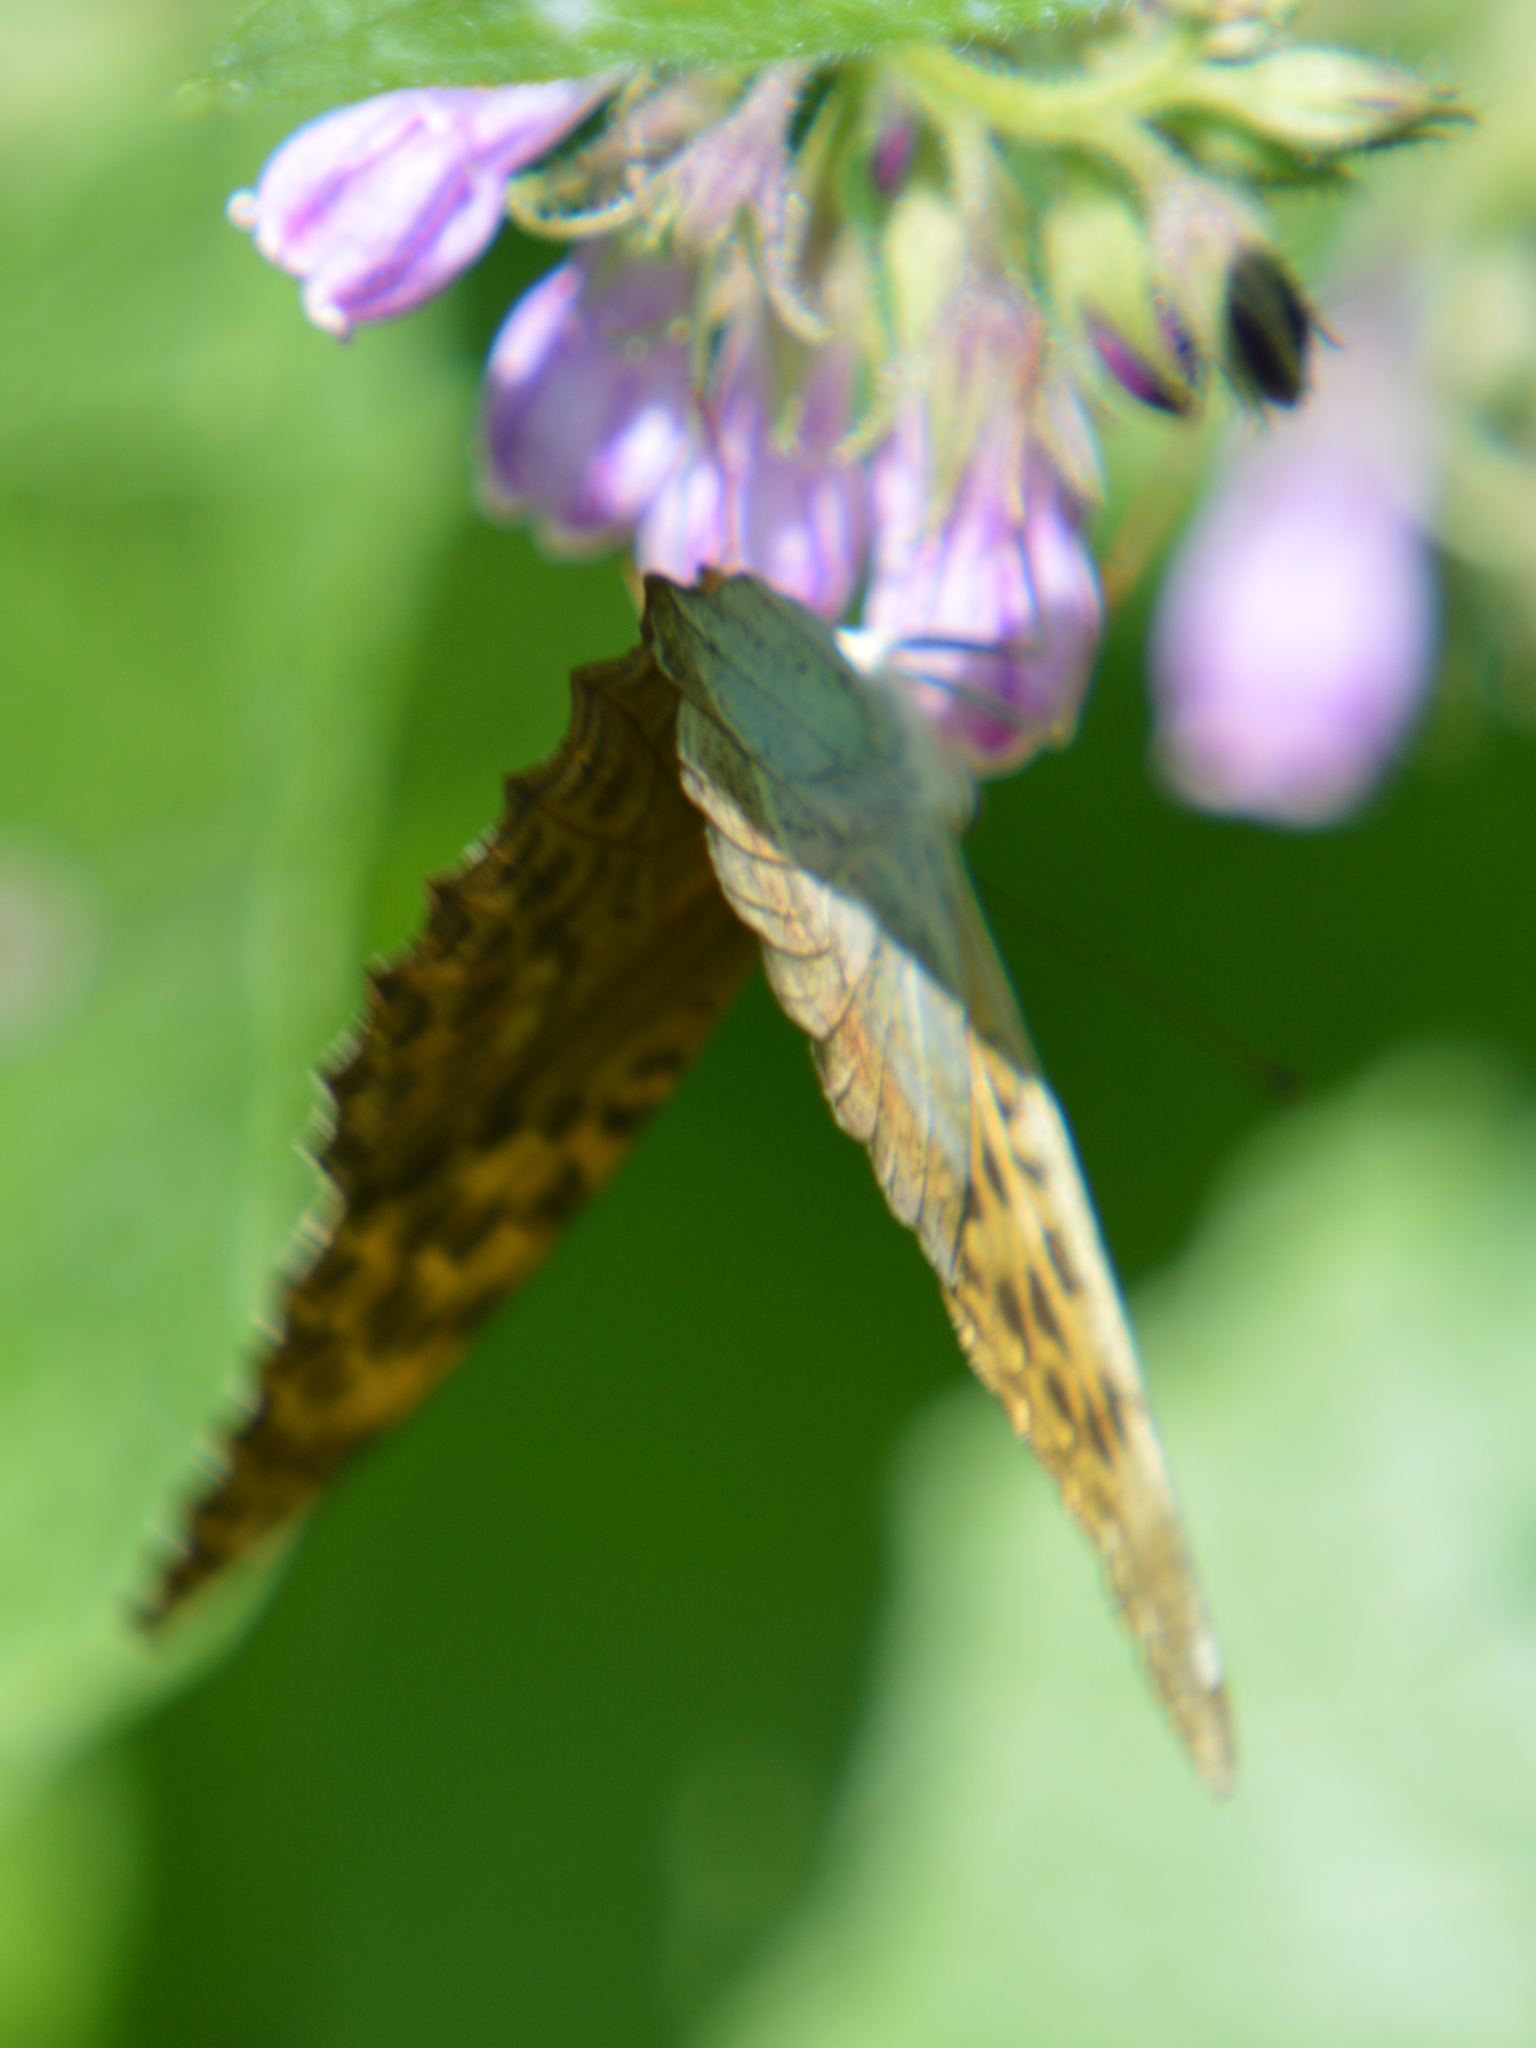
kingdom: Animalia
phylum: Arthropoda
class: Insecta
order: Lepidoptera
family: Nymphalidae
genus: Argynnis
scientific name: Argynnis paphia
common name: Silver-washed fritillary
